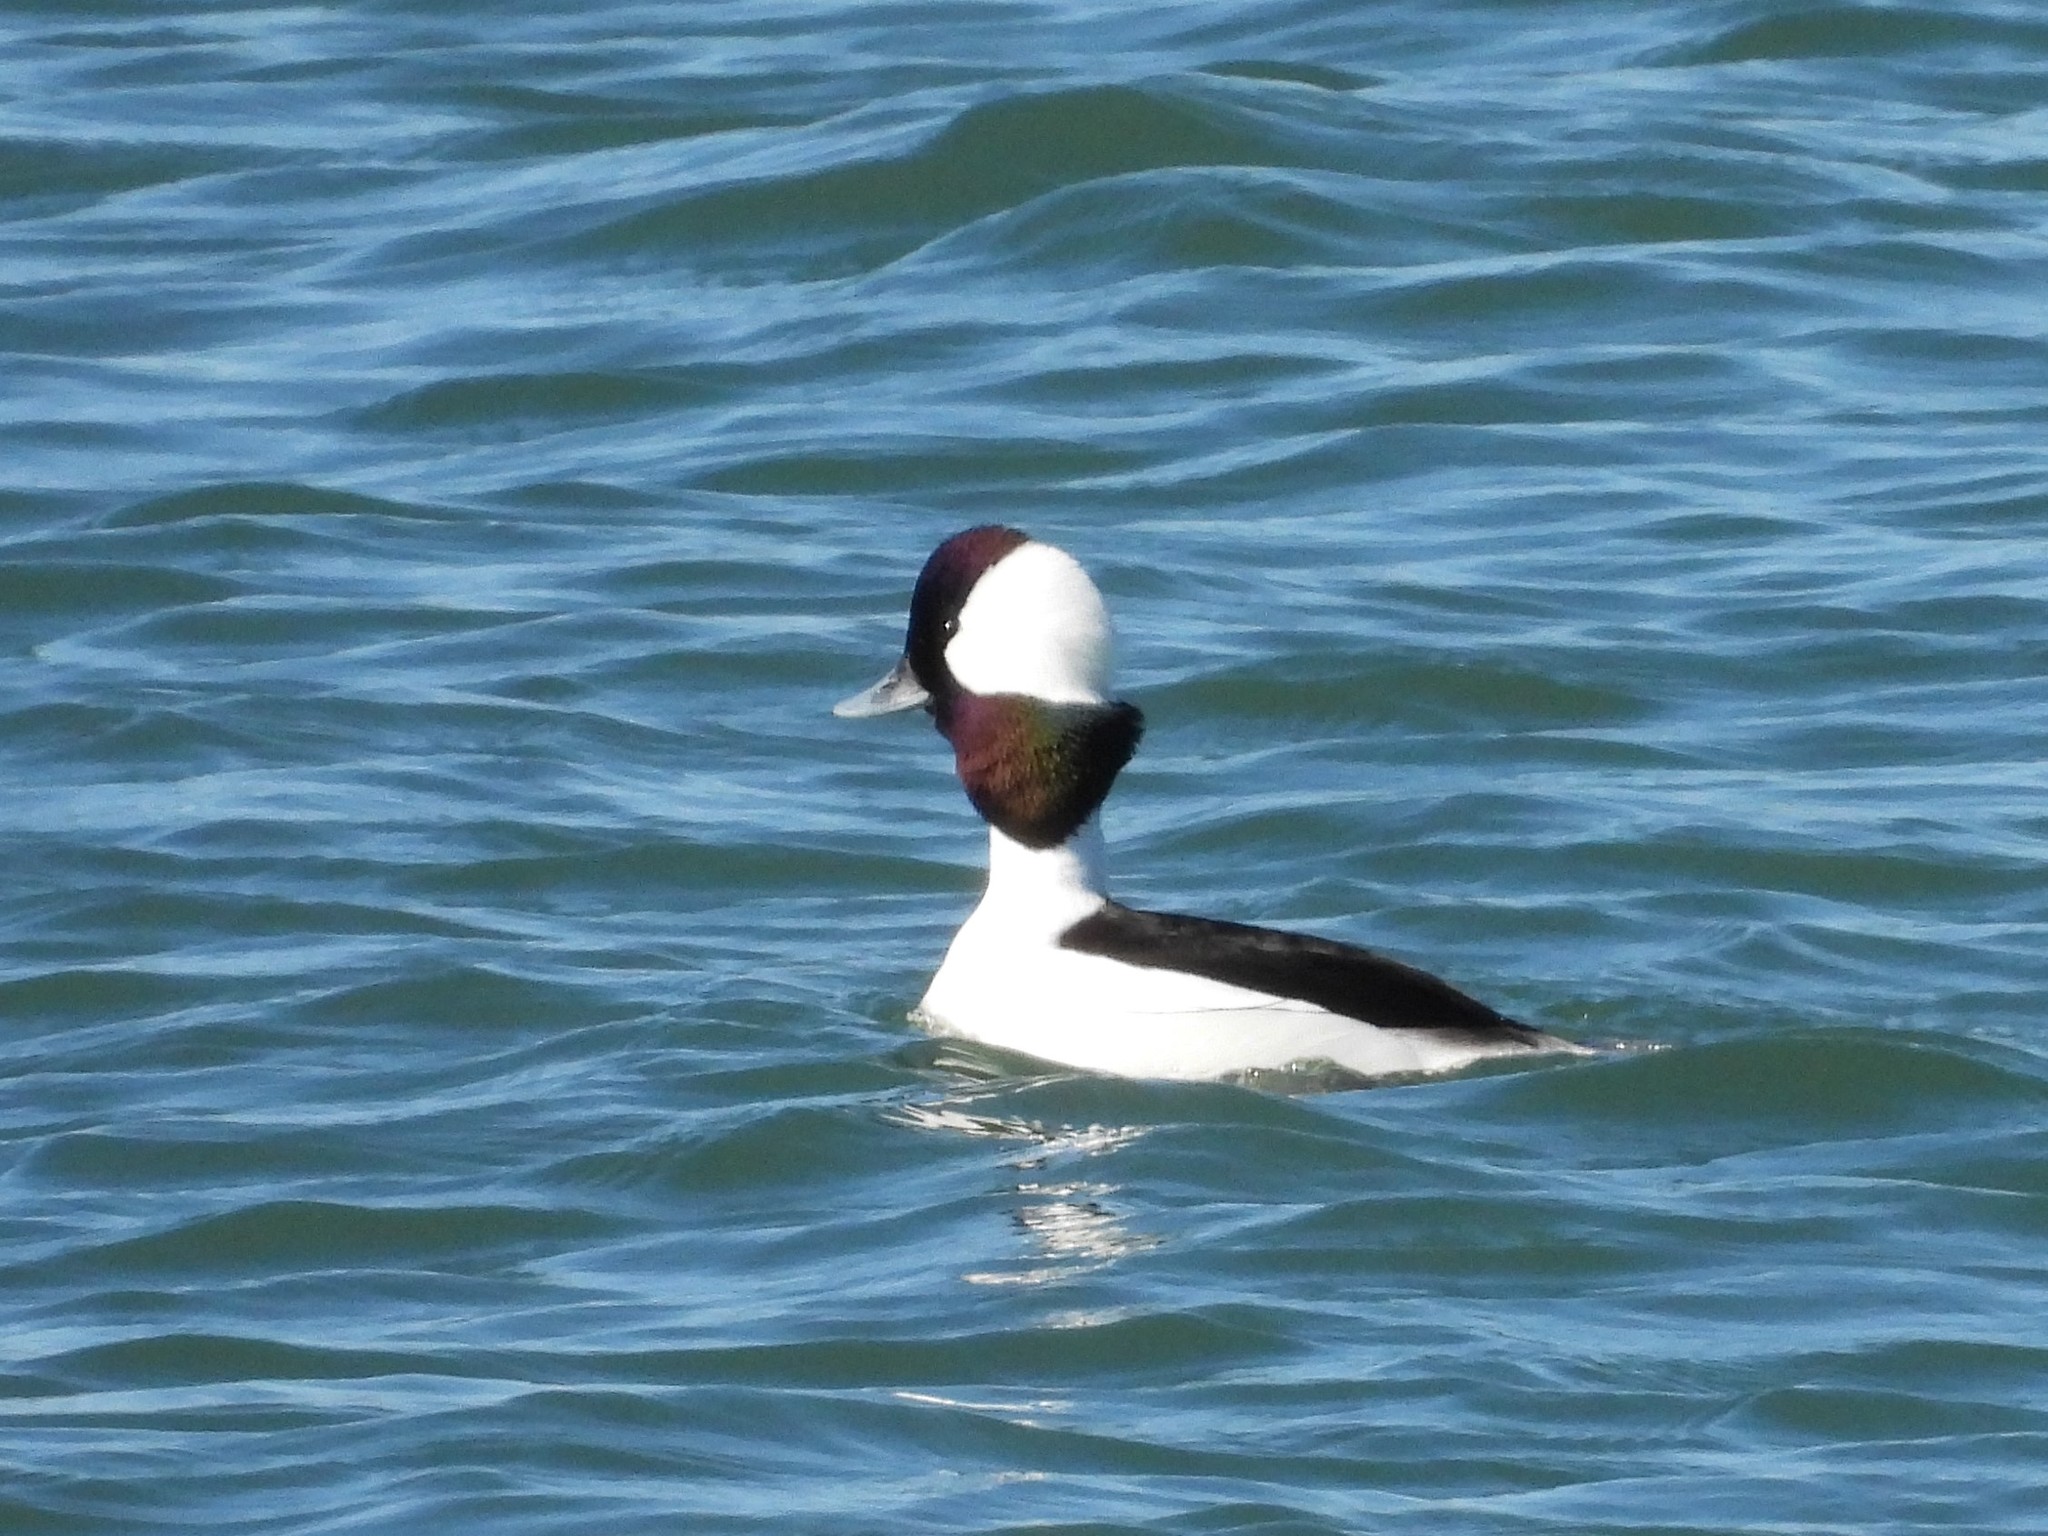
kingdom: Animalia
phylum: Chordata
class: Aves
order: Anseriformes
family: Anatidae
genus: Bucephala
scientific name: Bucephala albeola
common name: Bufflehead
